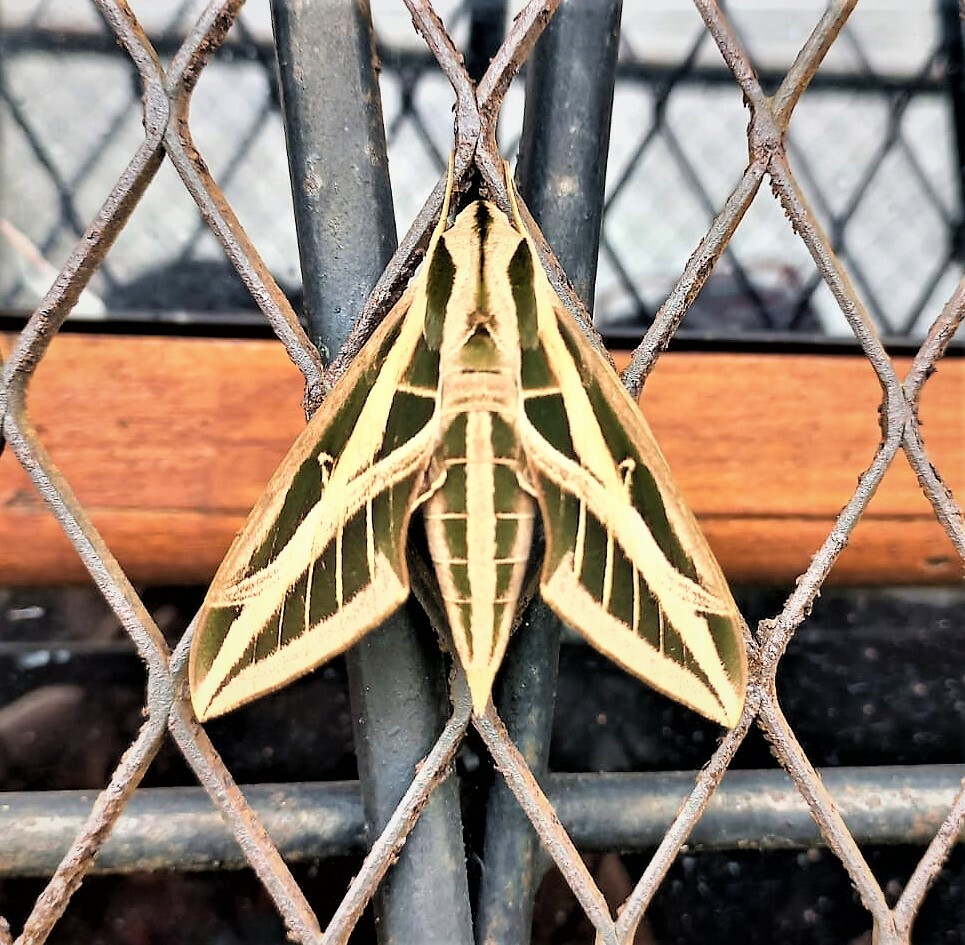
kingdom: Animalia
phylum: Arthropoda
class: Insecta
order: Lepidoptera
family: Sphingidae
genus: Eumorpha
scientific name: Eumorpha fasciatus
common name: Banded sphinx
